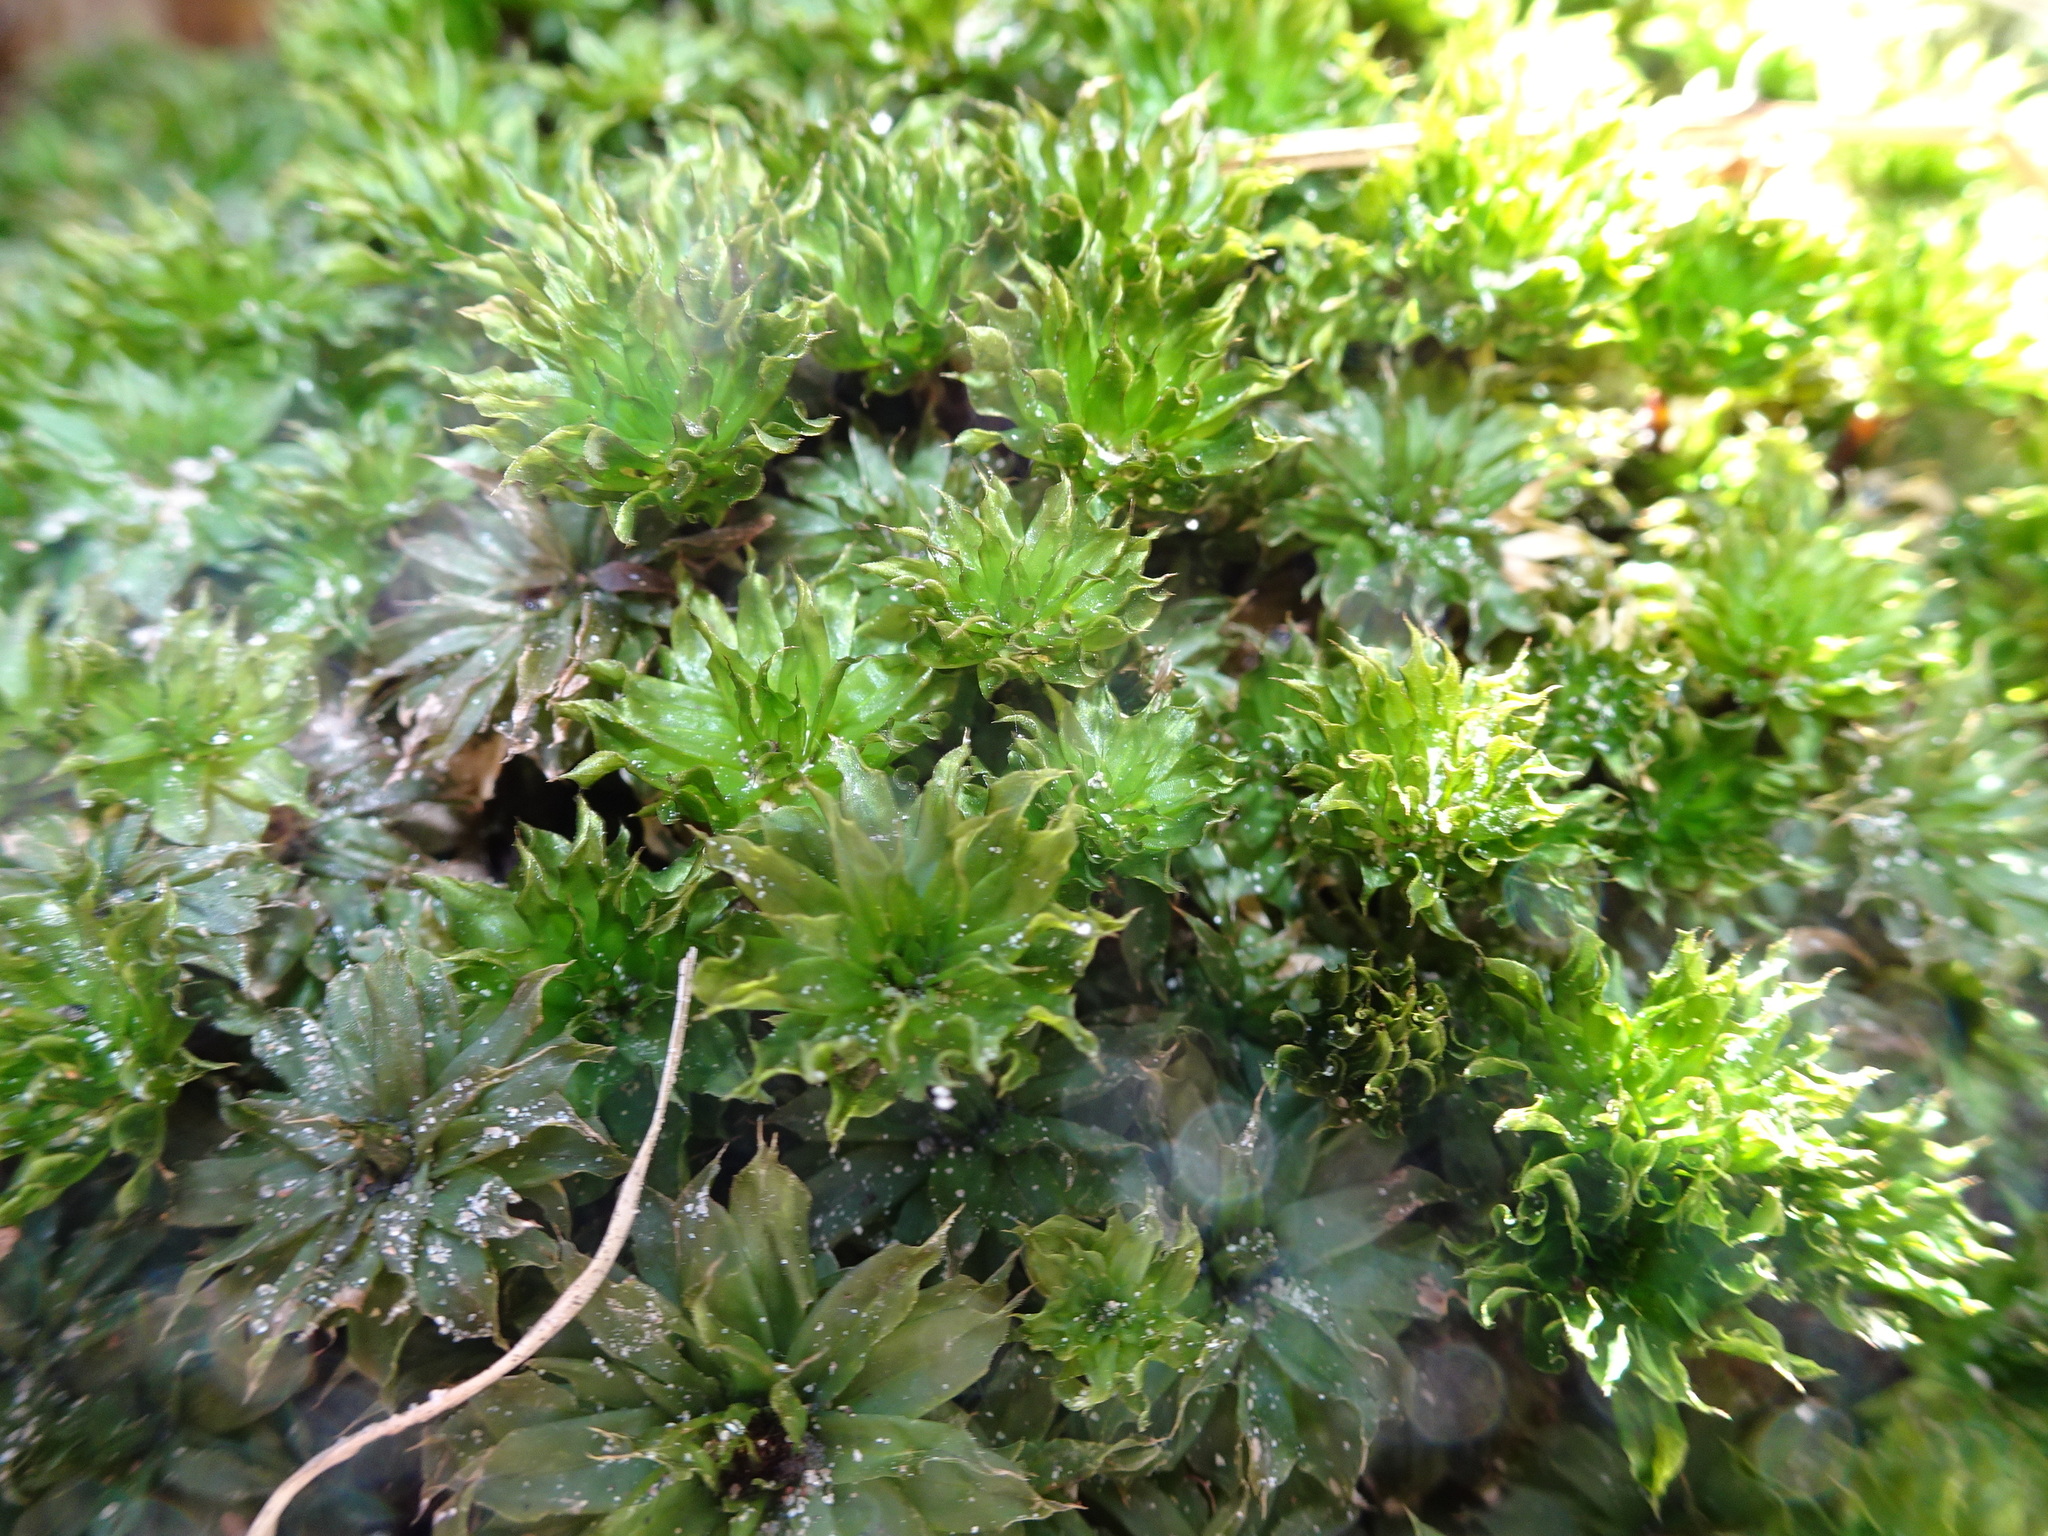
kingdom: Plantae
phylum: Bryophyta
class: Bryopsida
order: Bryales
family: Bryaceae
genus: Rhodobryum
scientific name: Rhodobryum ontariense
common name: Ontario rhodobryum moss
